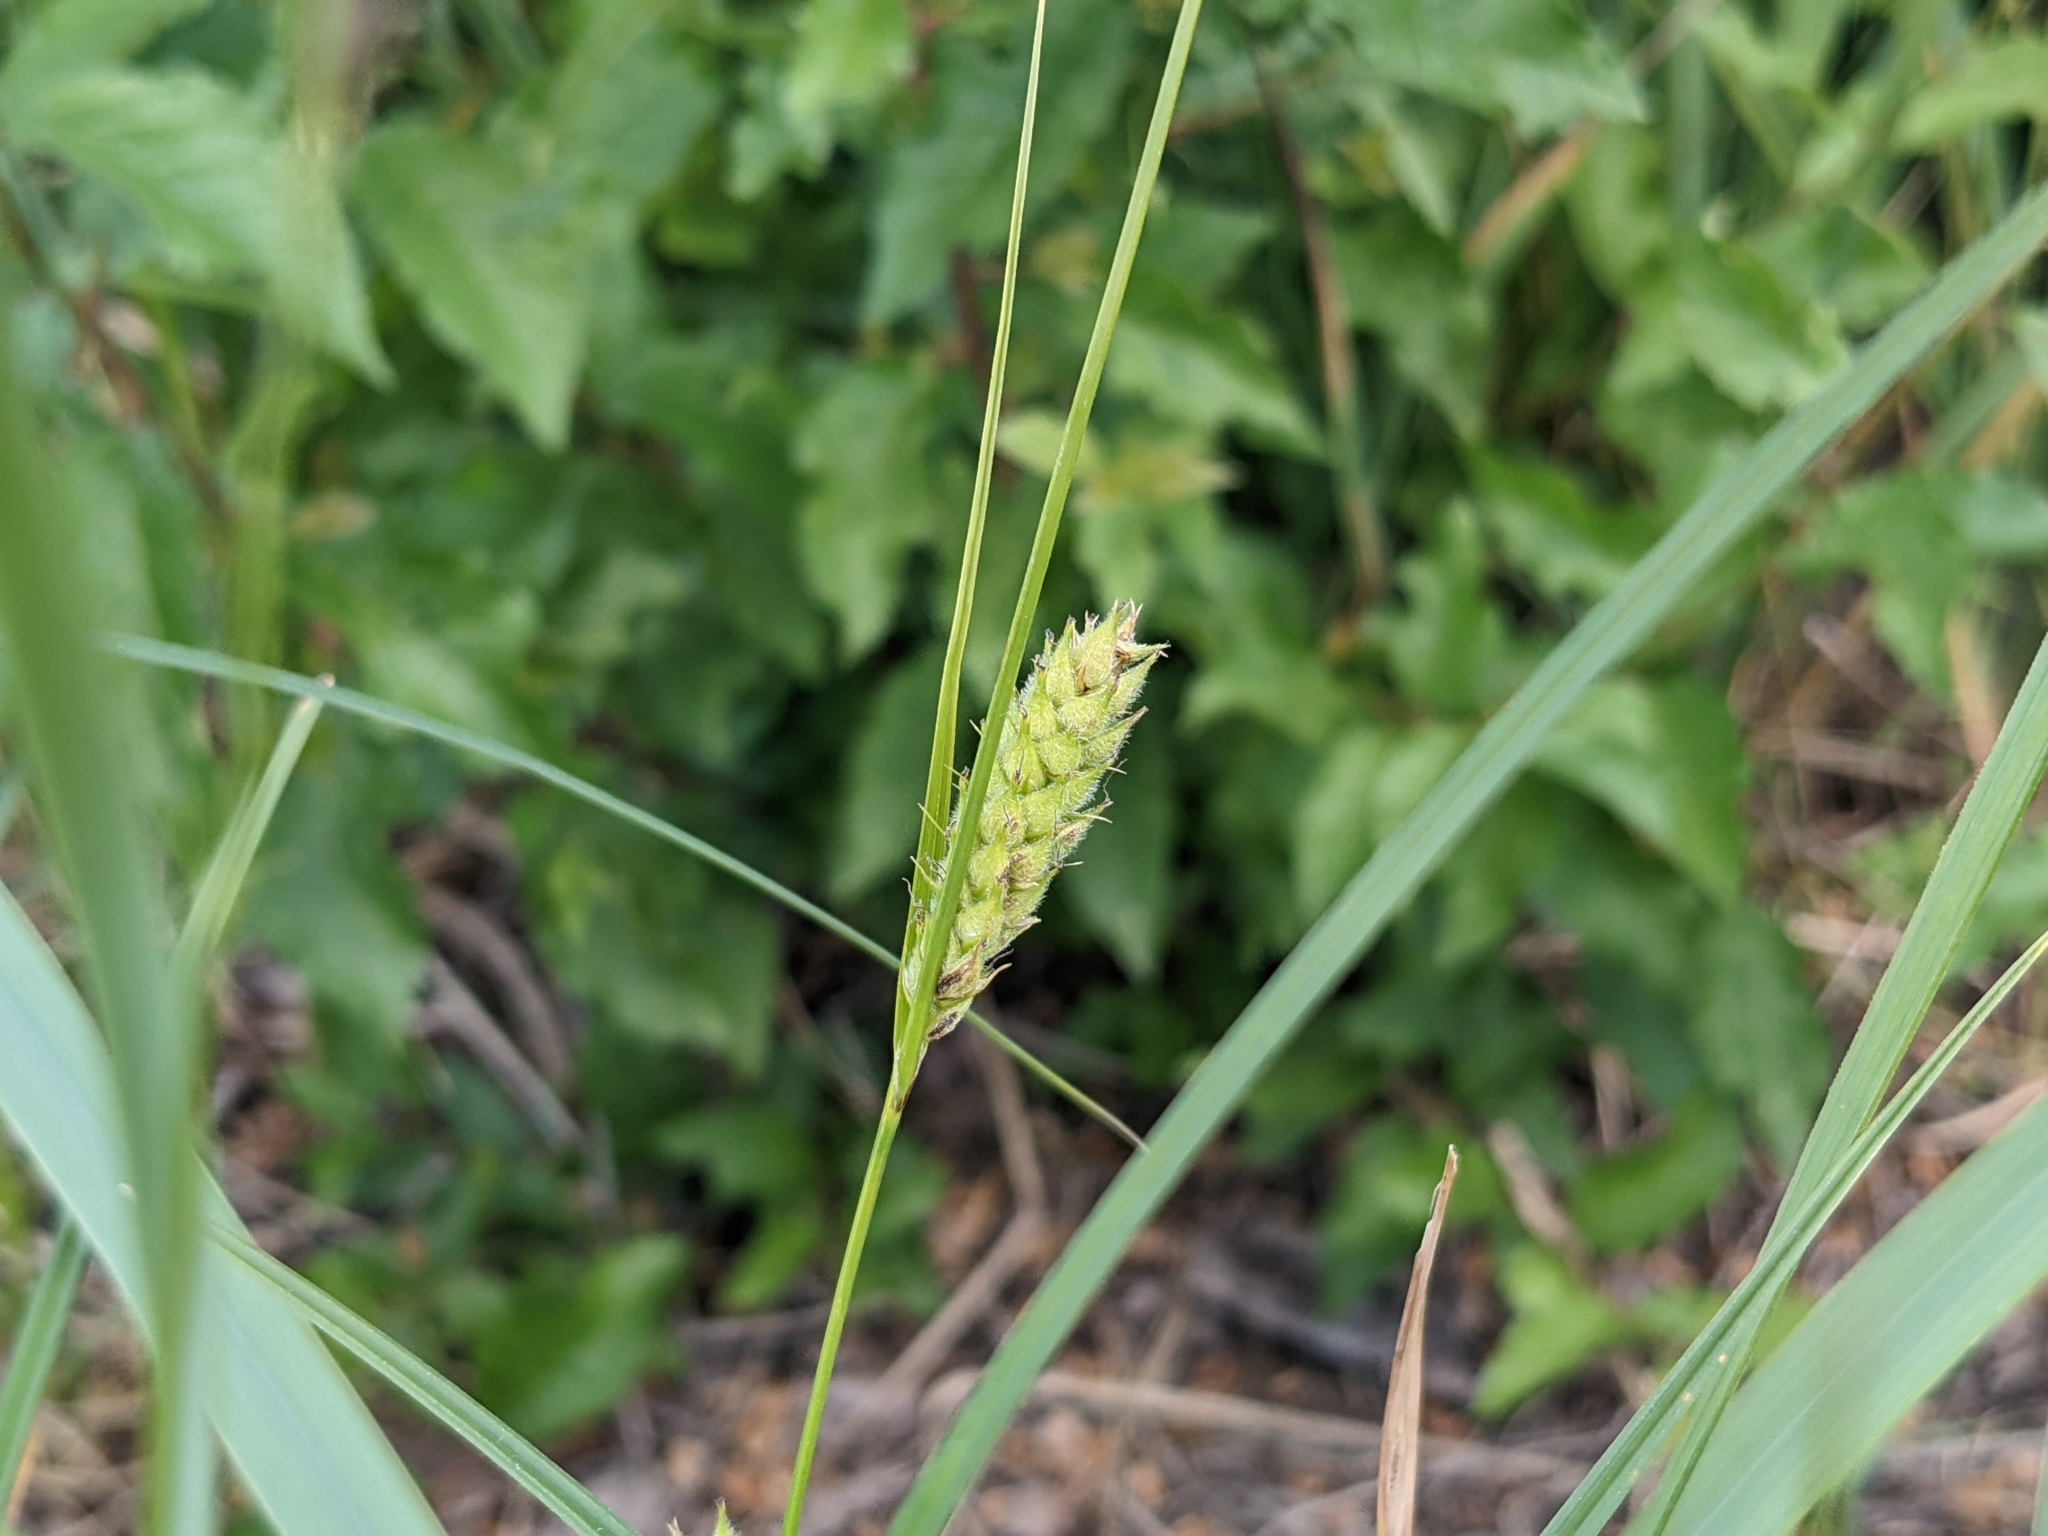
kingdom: Plantae
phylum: Tracheophyta
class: Liliopsida
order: Poales
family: Cyperaceae
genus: Carex
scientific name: Carex hirta
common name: Hairy sedge
